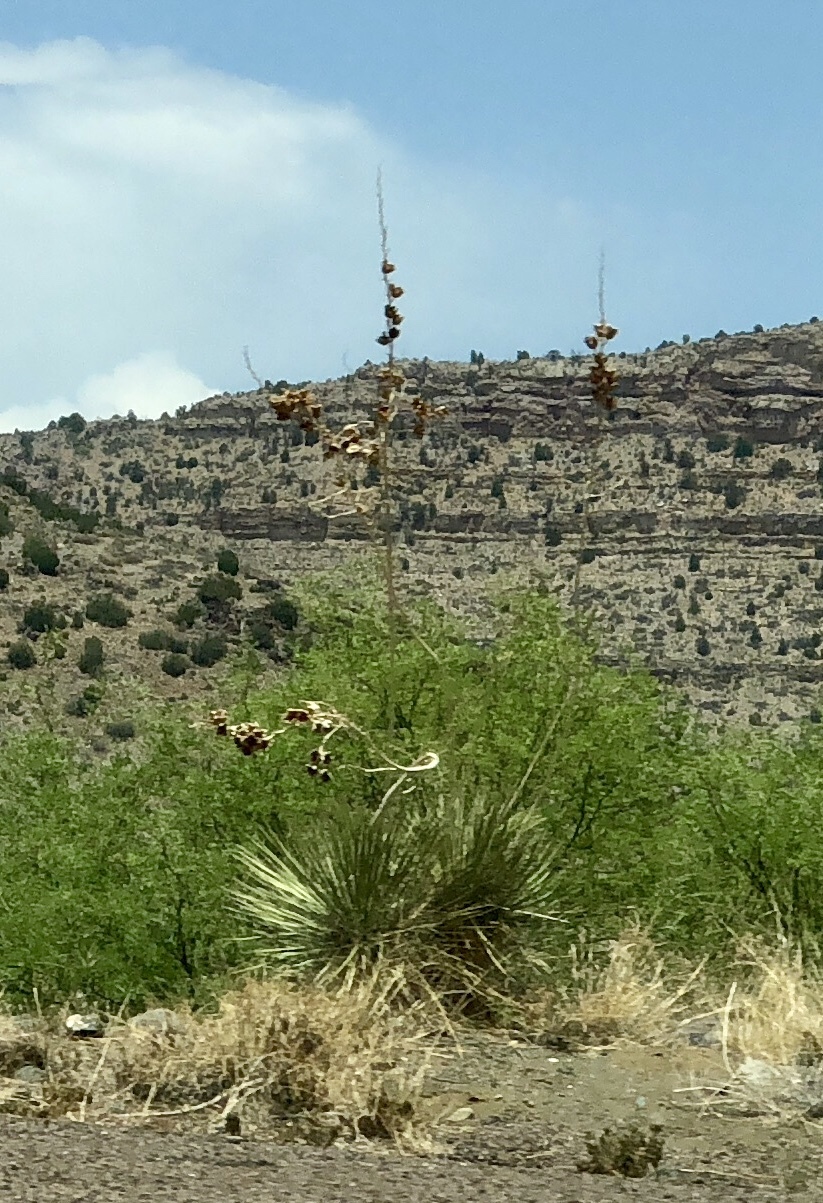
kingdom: Plantae
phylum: Tracheophyta
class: Liliopsida
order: Asparagales
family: Asparagaceae
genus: Yucca
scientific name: Yucca elata
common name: Palmella
